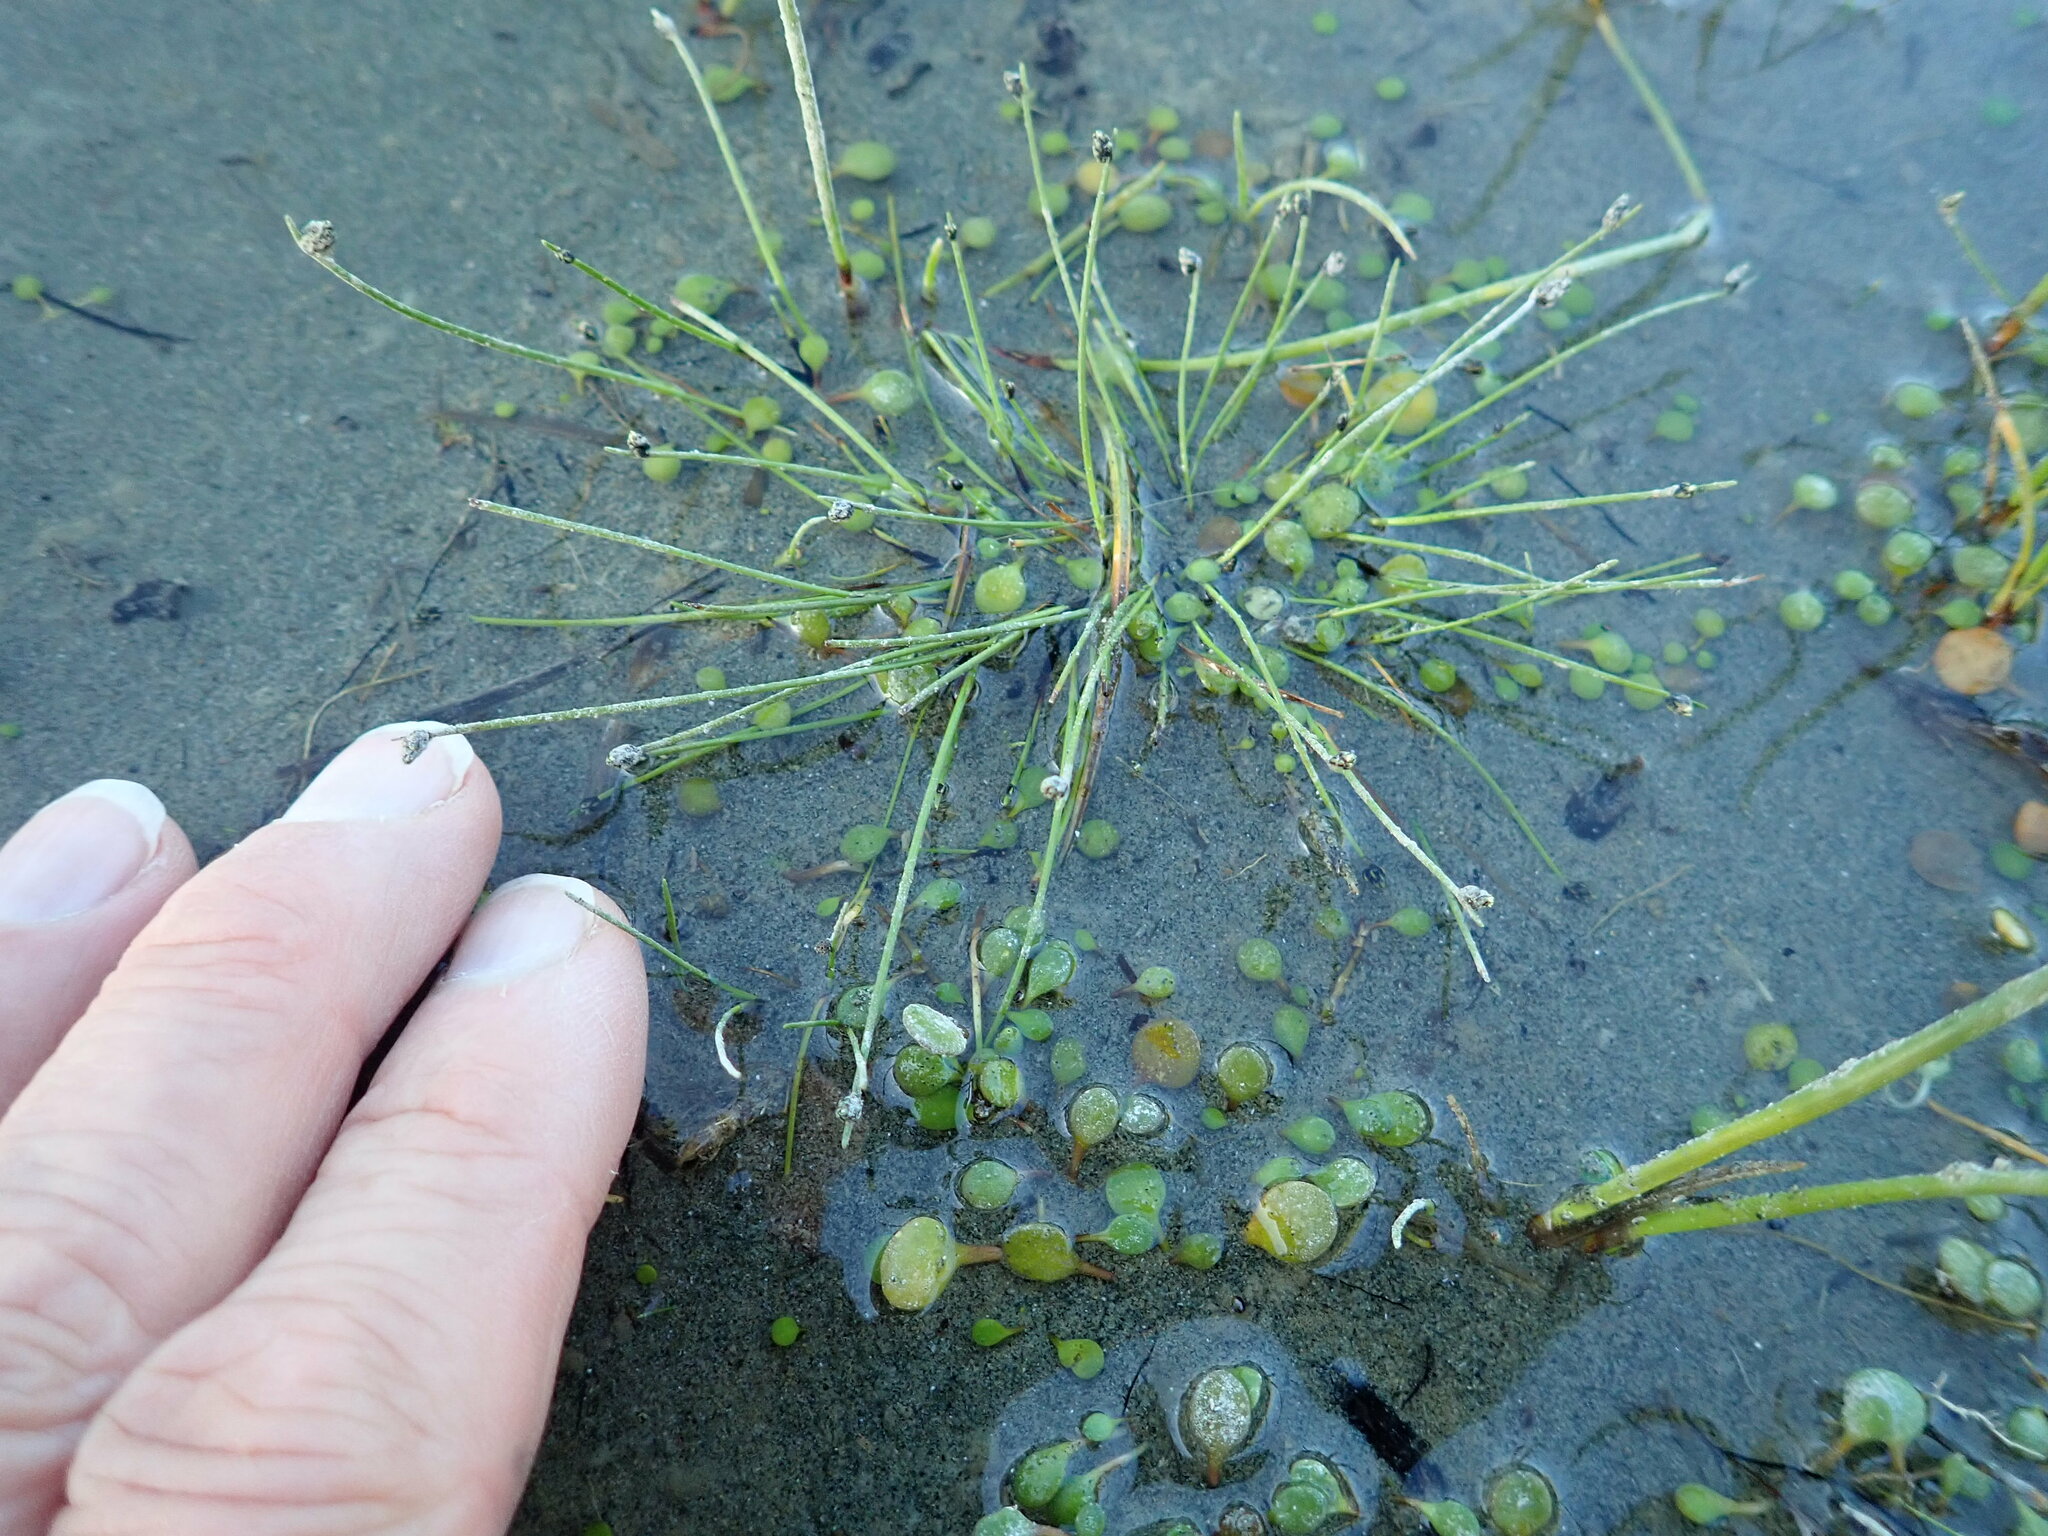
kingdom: Plantae
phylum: Tracheophyta
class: Liliopsida
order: Poales
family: Cyperaceae
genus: Isolepis
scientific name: Isolepis cernua
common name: Slender club-rush
